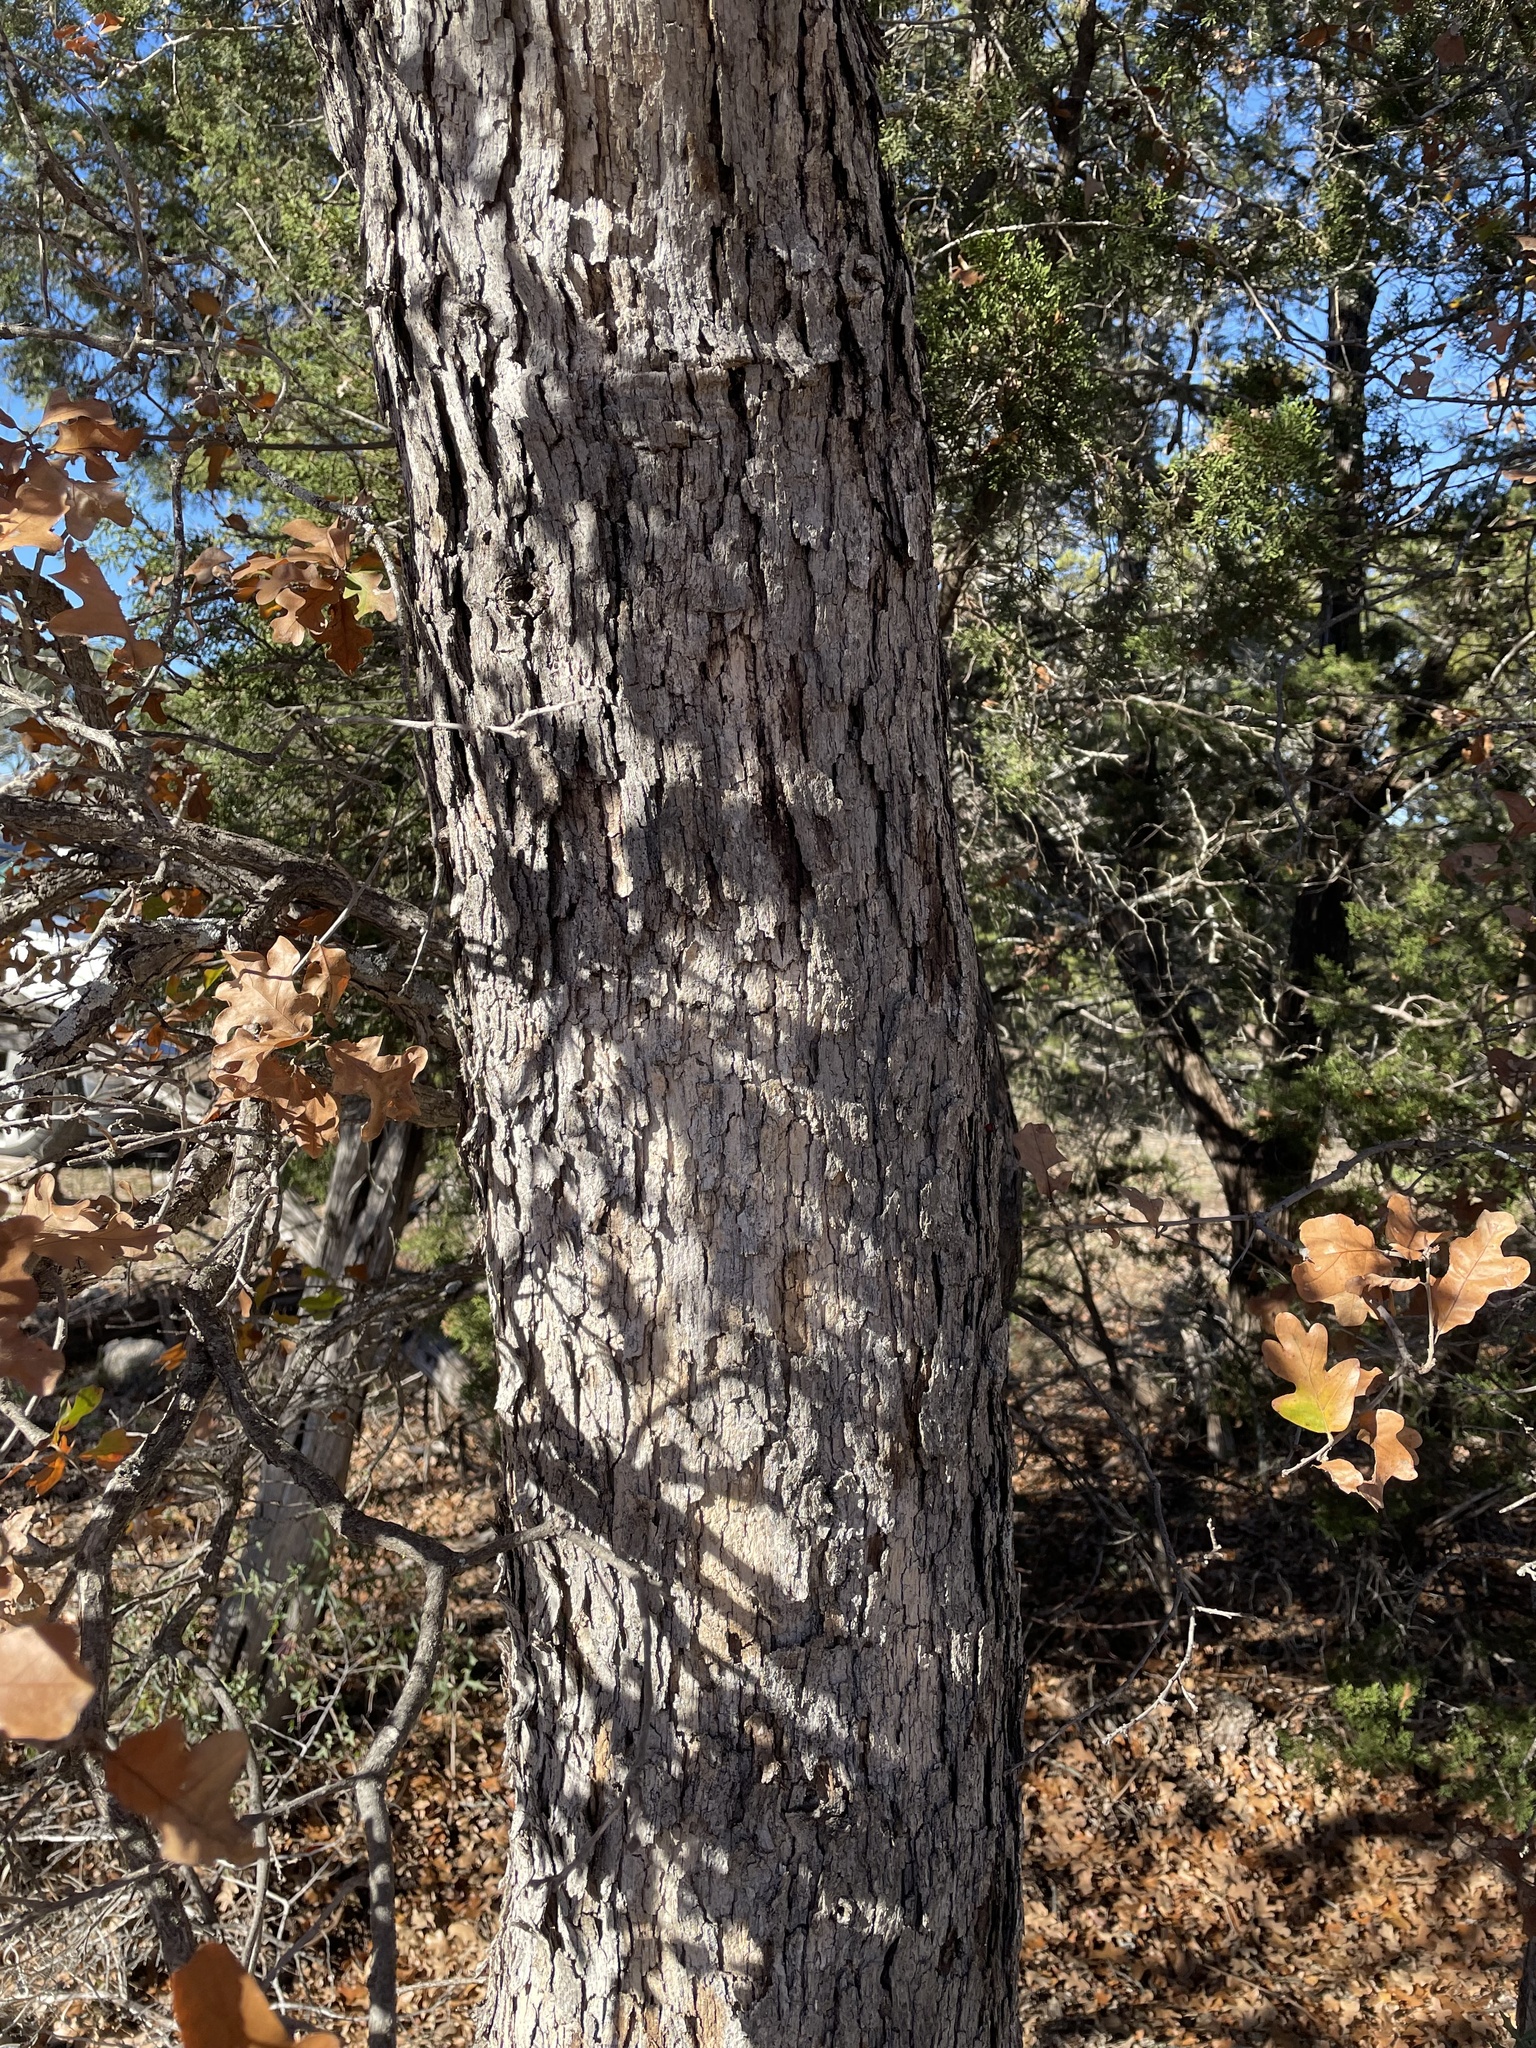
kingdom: Plantae
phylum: Tracheophyta
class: Magnoliopsida
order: Fagales
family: Fagaceae
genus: Quercus
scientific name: Quercus sinuata
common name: Durand oak
